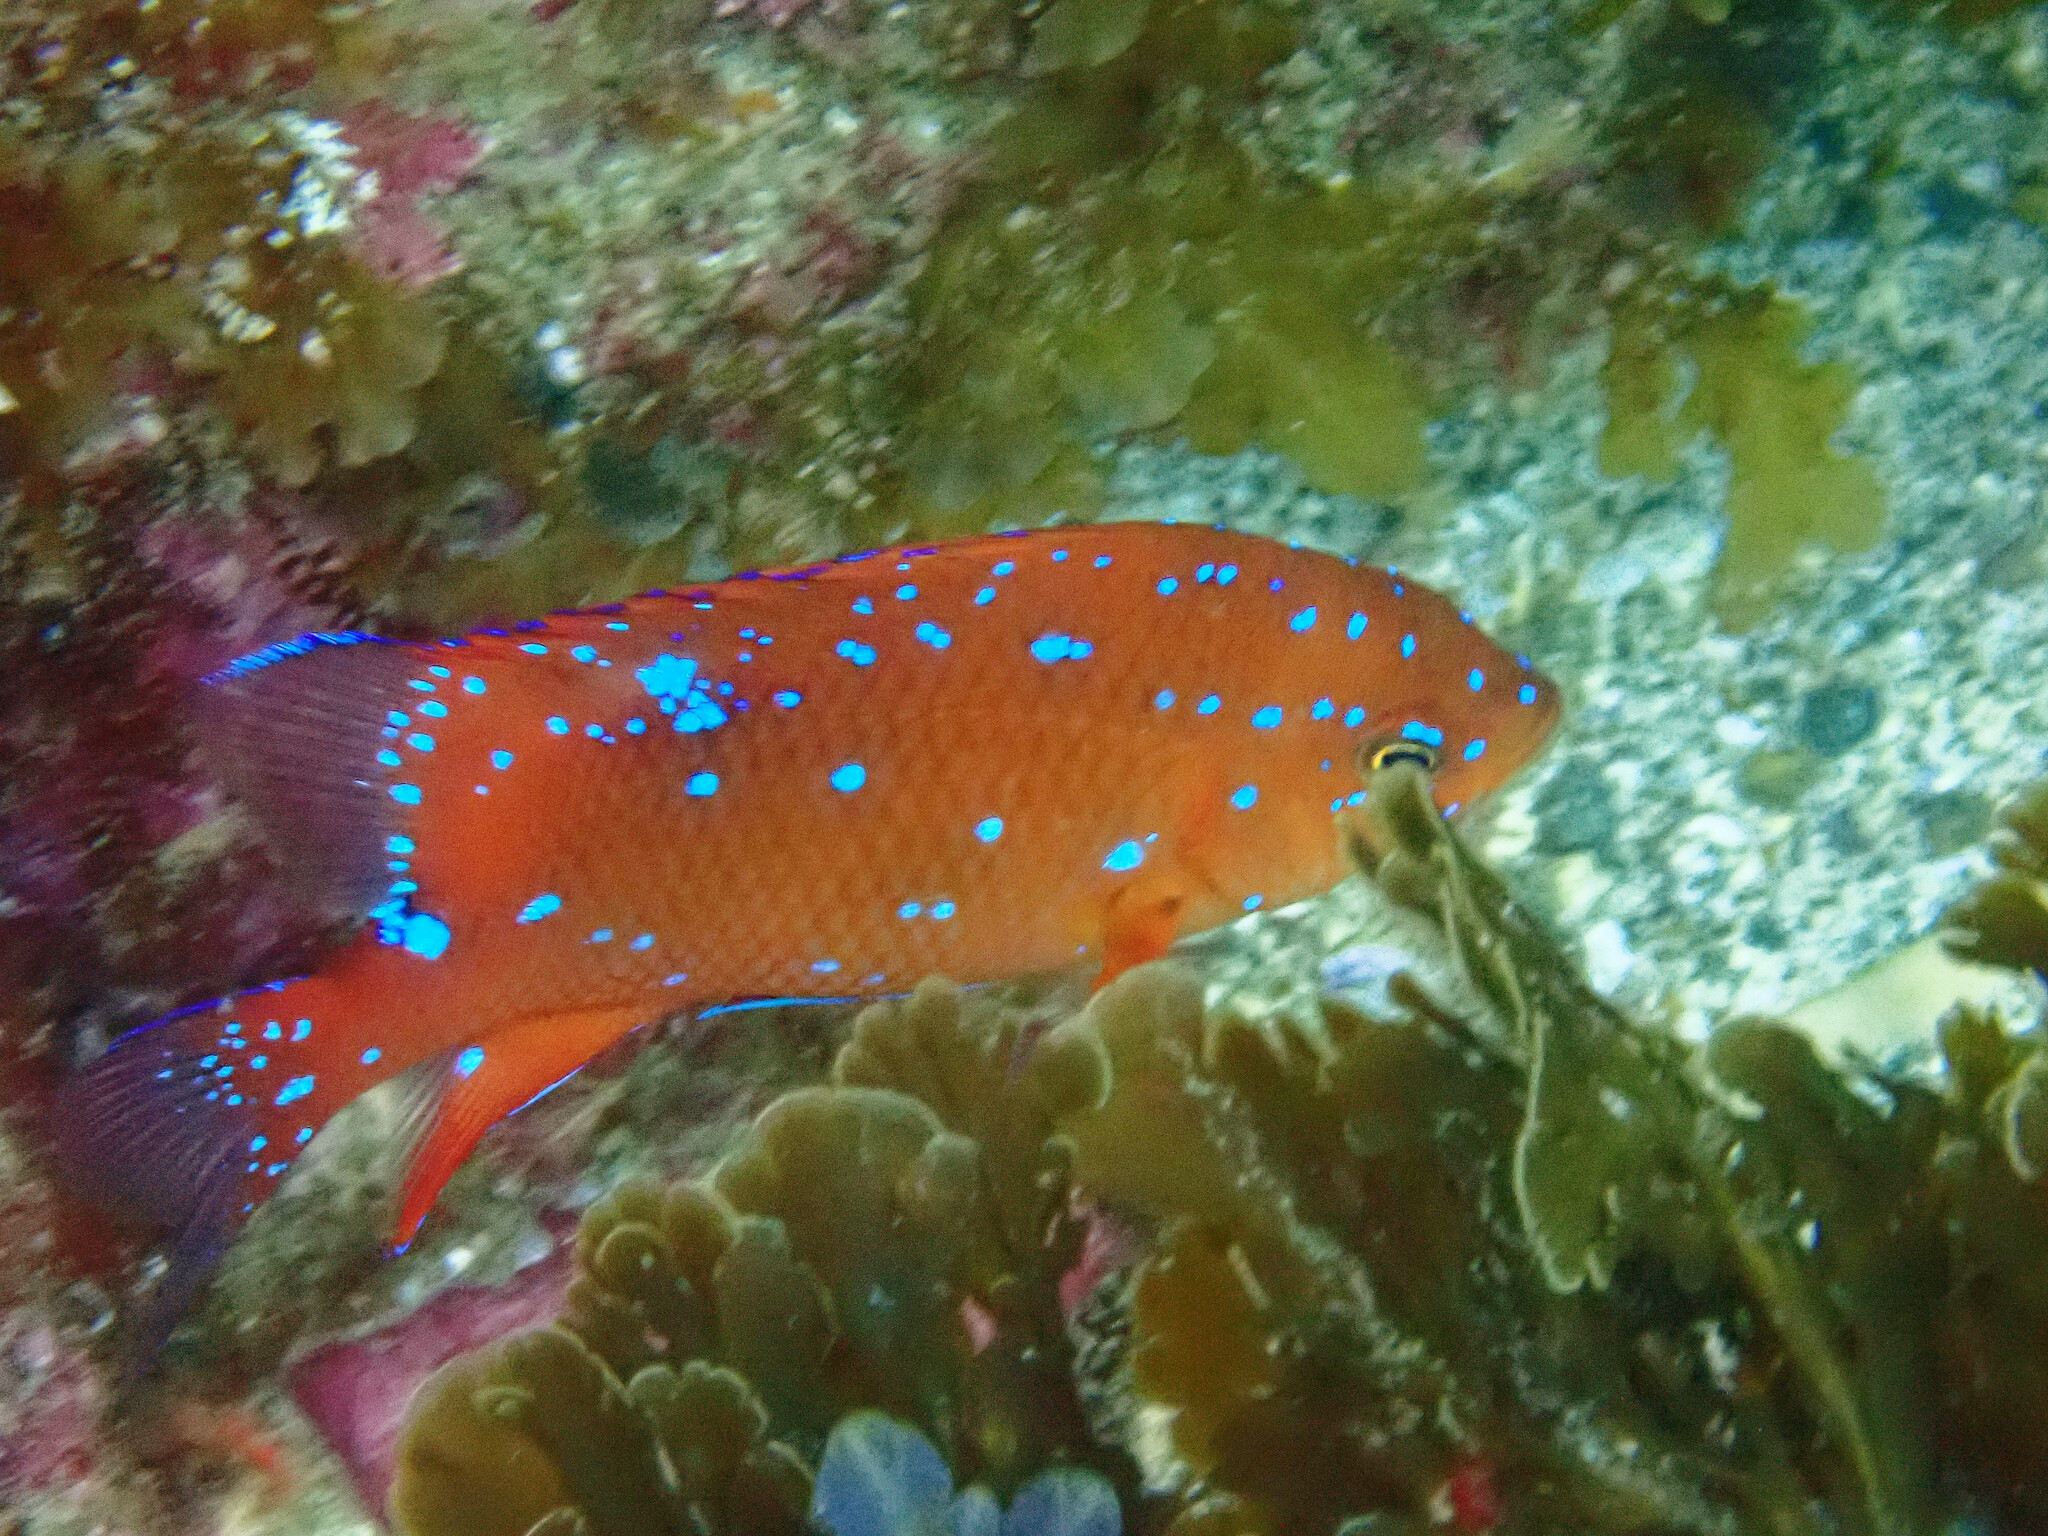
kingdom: Animalia
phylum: Chordata
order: Perciformes
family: Pomacentridae
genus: Hypsypops
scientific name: Hypsypops rubicundus
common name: Garibaldi
